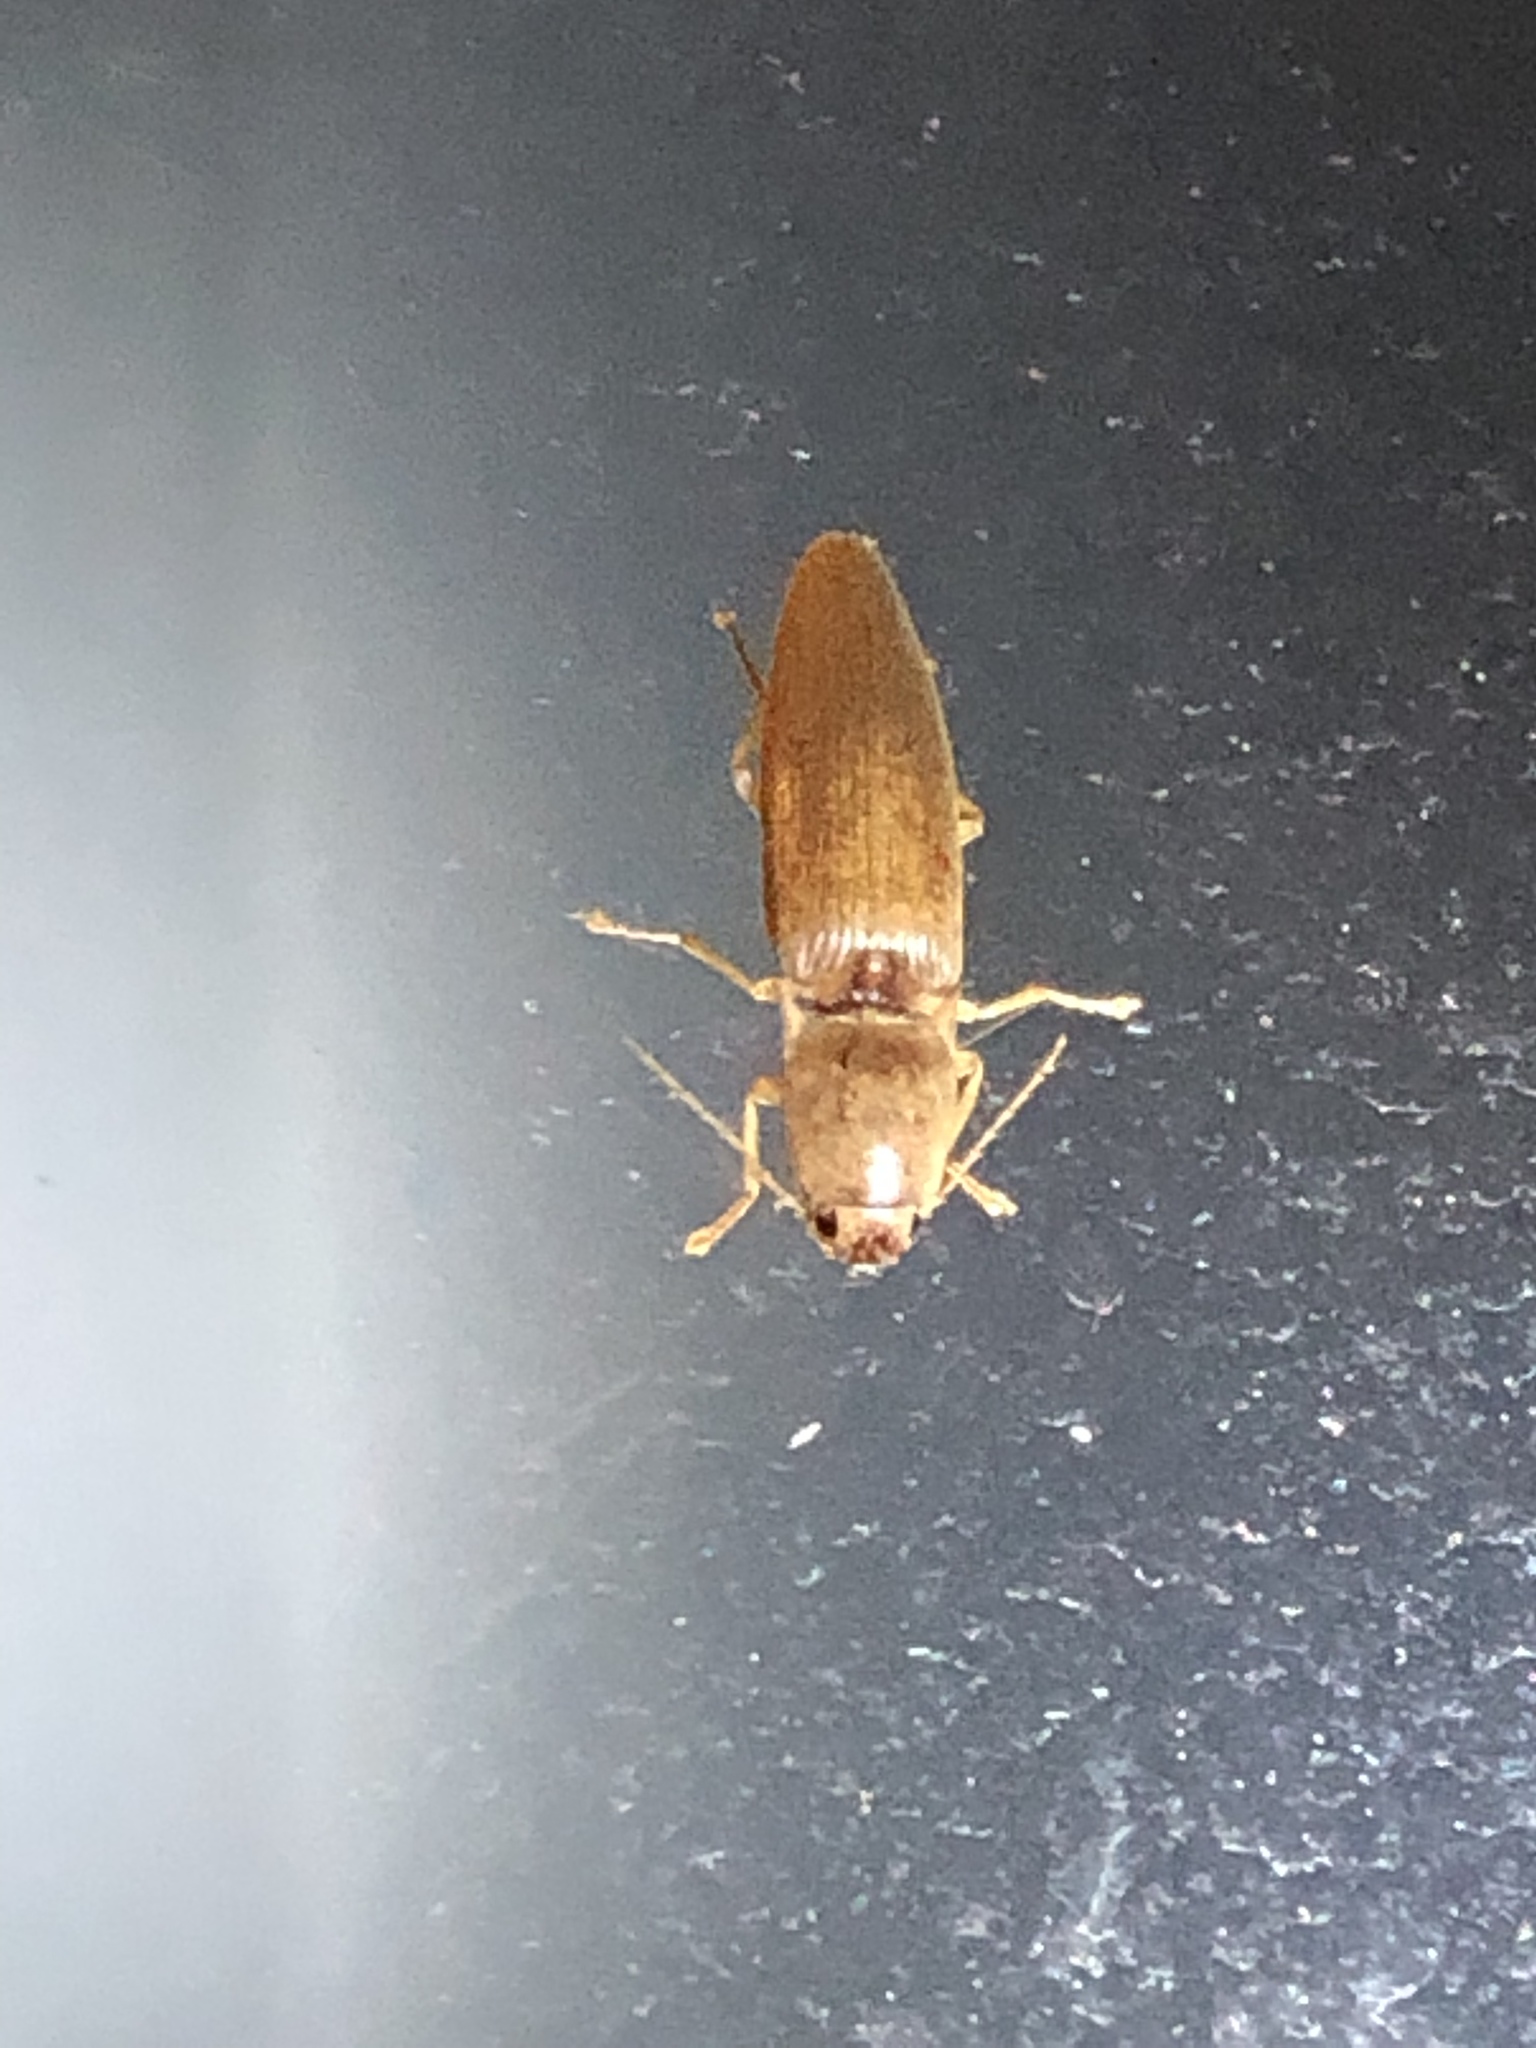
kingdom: Animalia
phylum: Arthropoda
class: Insecta
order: Coleoptera
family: Elateridae
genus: Monocrepidius
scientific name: Monocrepidius lividus
